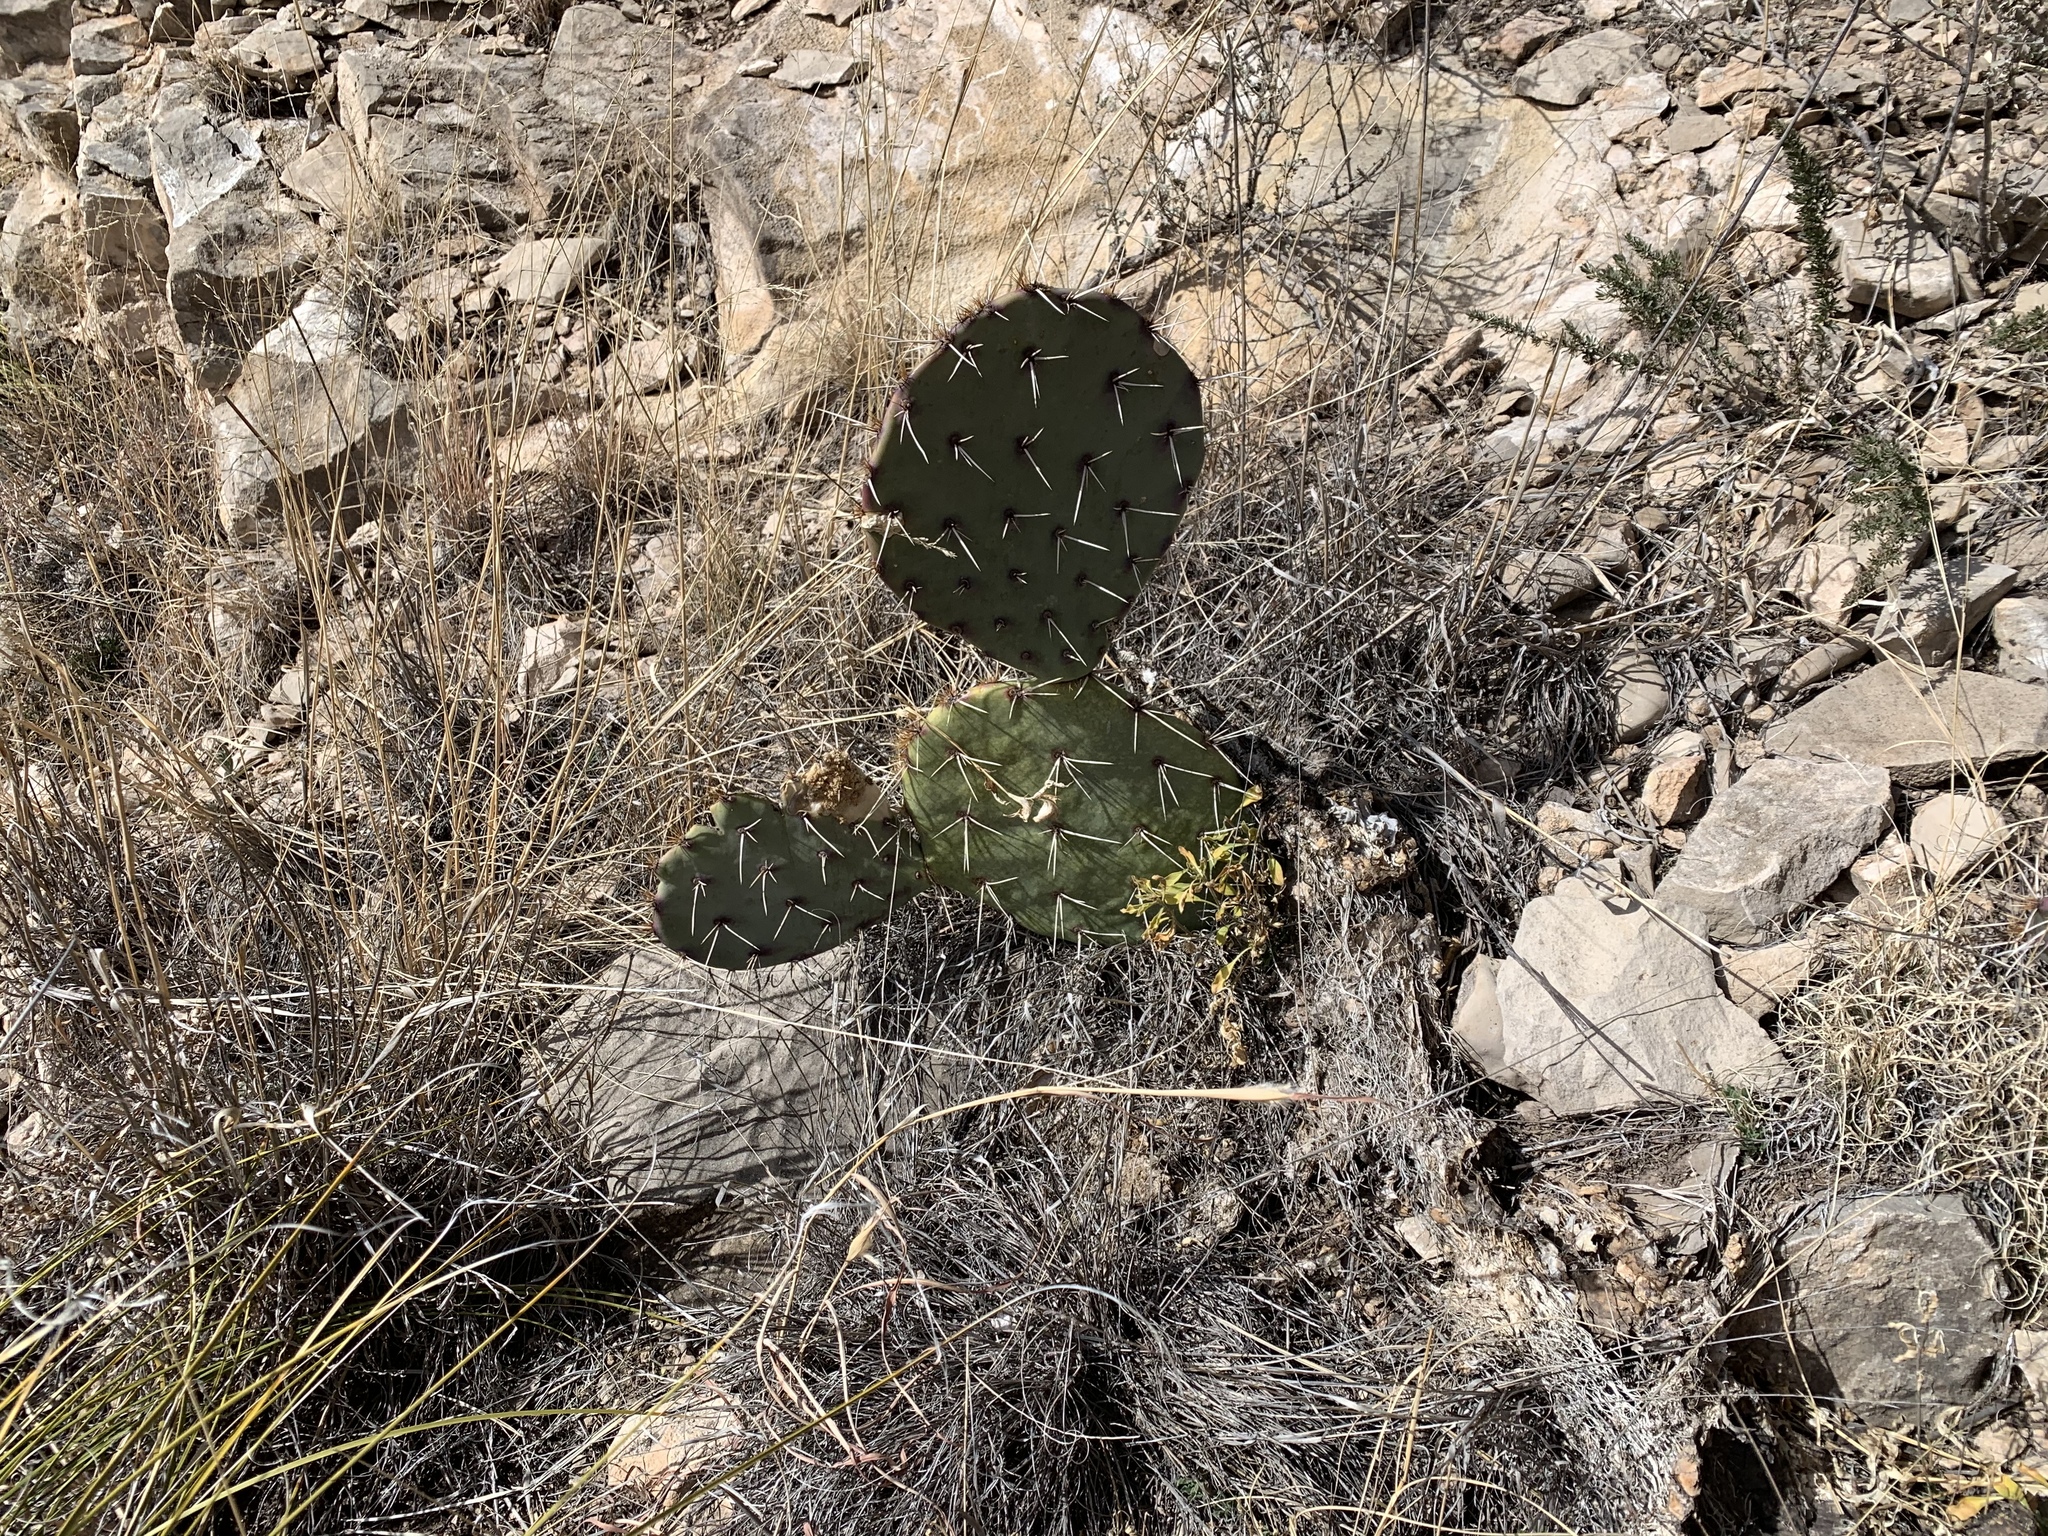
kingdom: Plantae
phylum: Tracheophyta
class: Magnoliopsida
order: Caryophyllales
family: Cactaceae
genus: Opuntia
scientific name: Opuntia engelmannii
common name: Cactus-apple
